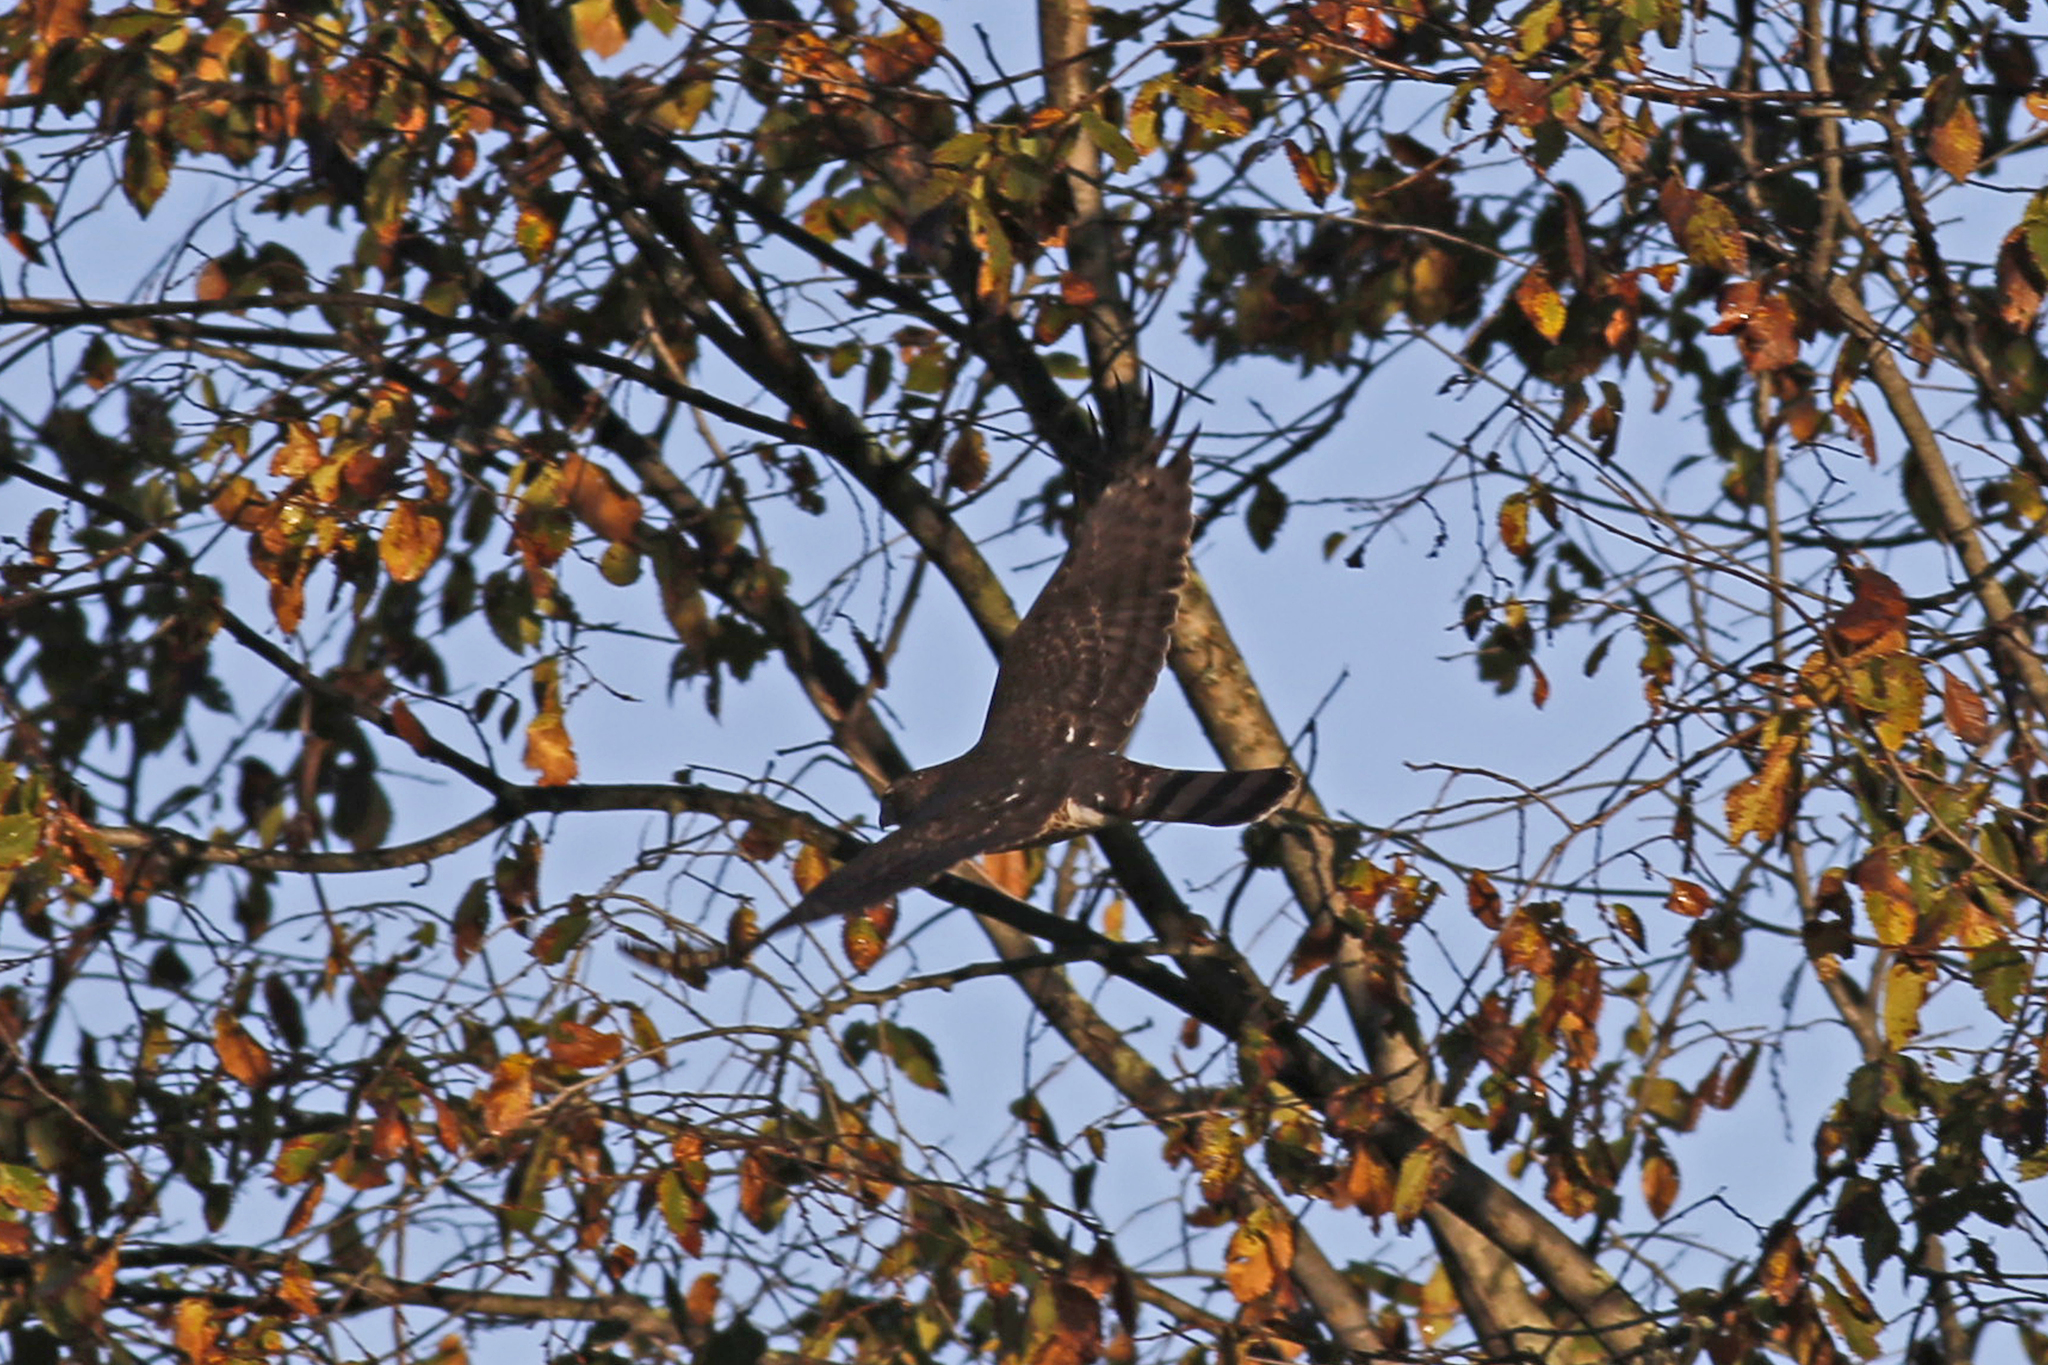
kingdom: Animalia
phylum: Chordata
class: Aves
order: Accipitriformes
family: Accipitridae
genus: Accipiter
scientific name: Accipiter cooperii
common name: Cooper's hawk
